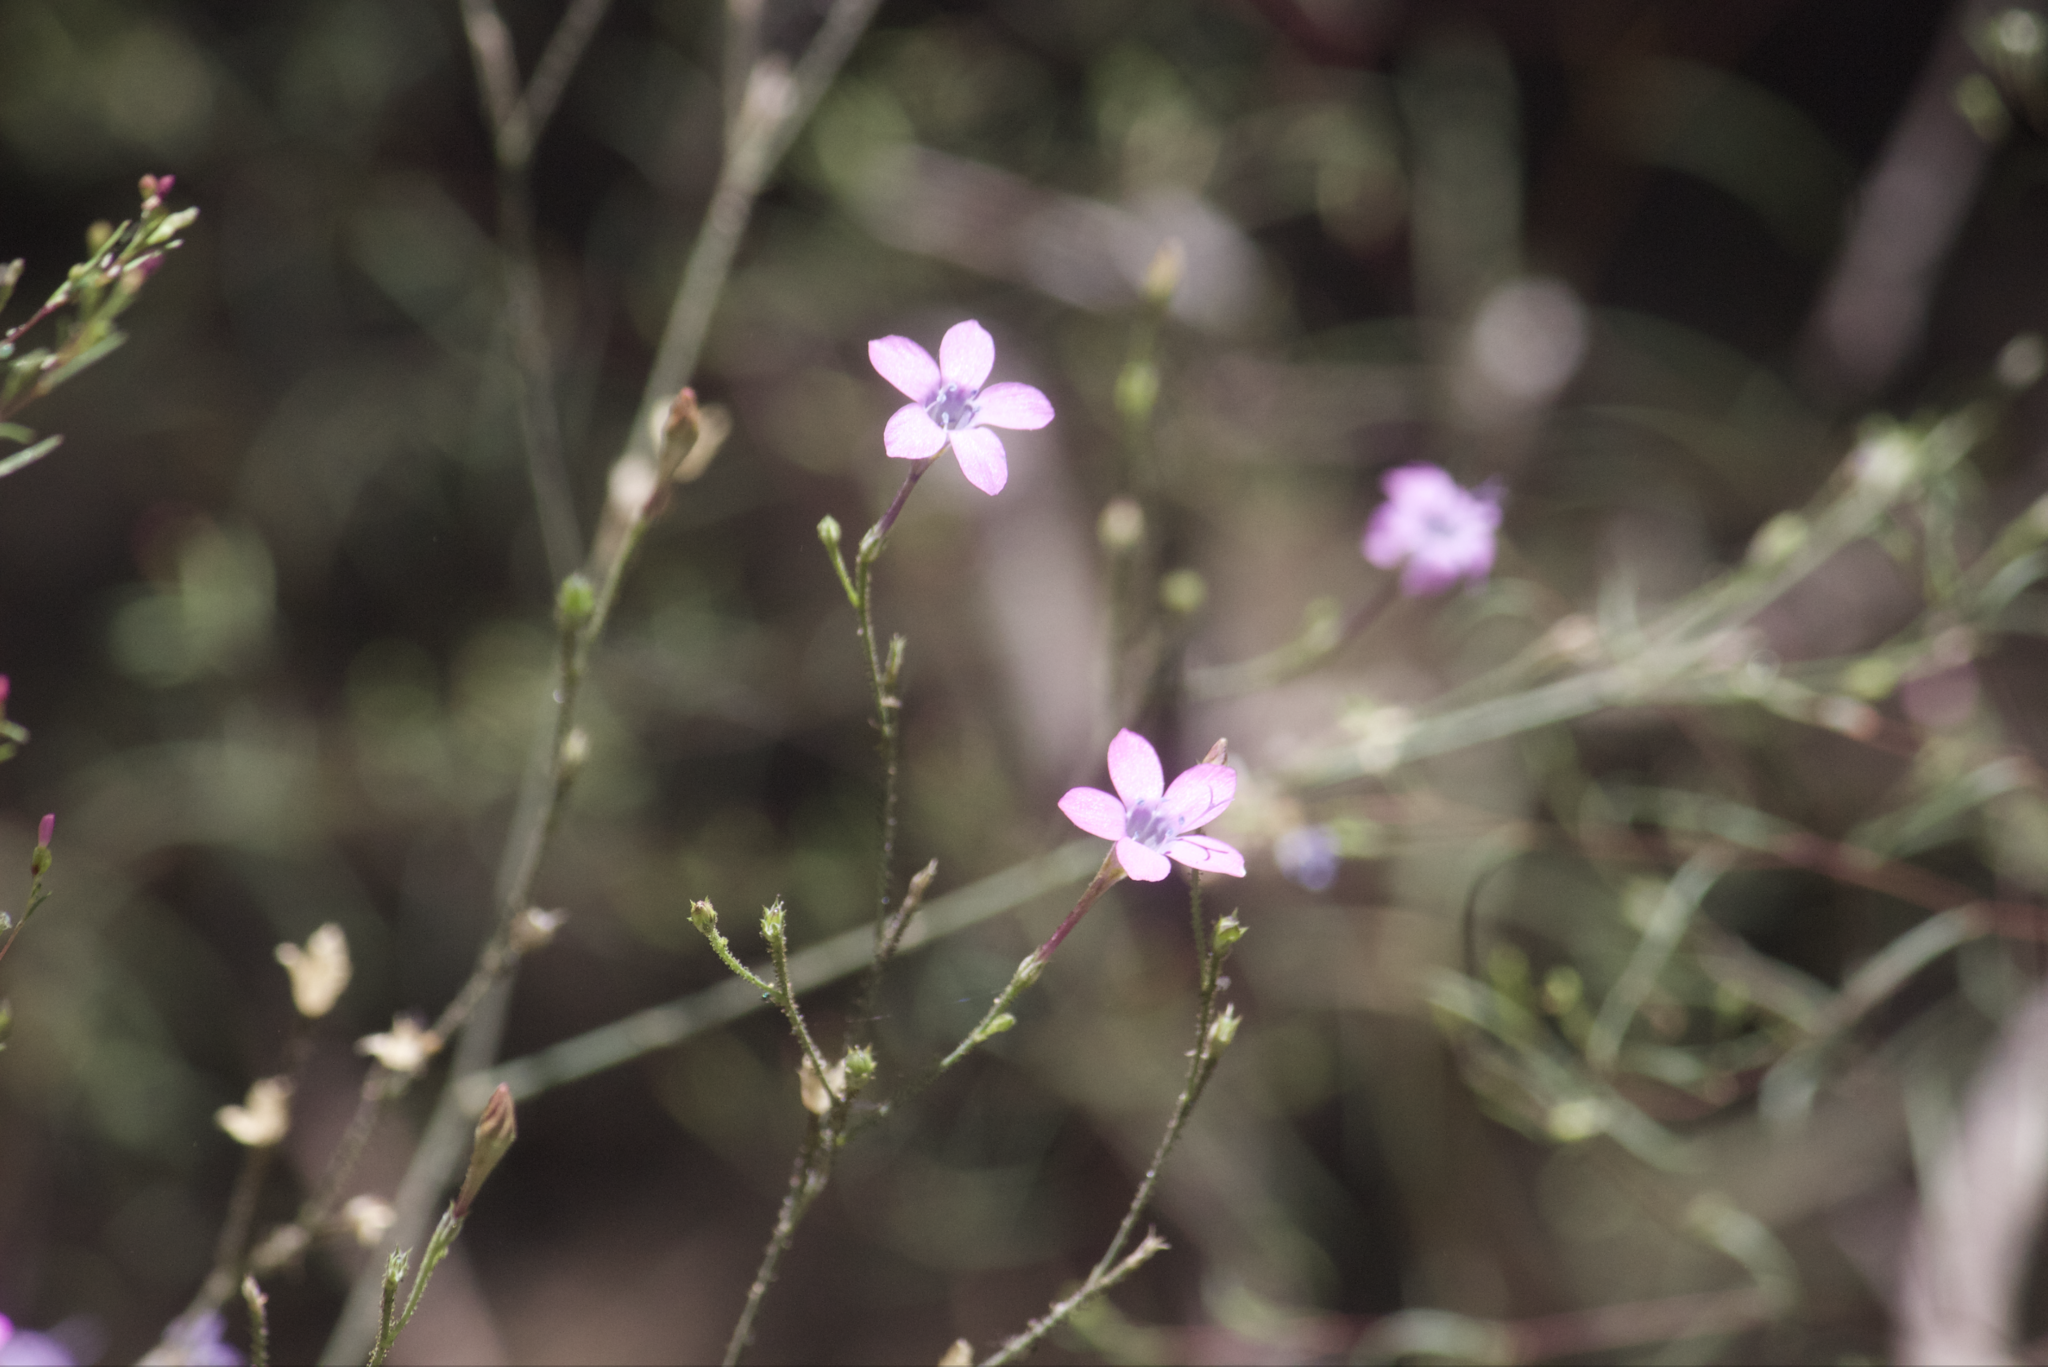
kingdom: Plantae
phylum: Tracheophyta
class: Magnoliopsida
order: Ericales
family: Polemoniaceae
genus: Saltugilia
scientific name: Saltugilia splendens
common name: Grinnell's gilia
